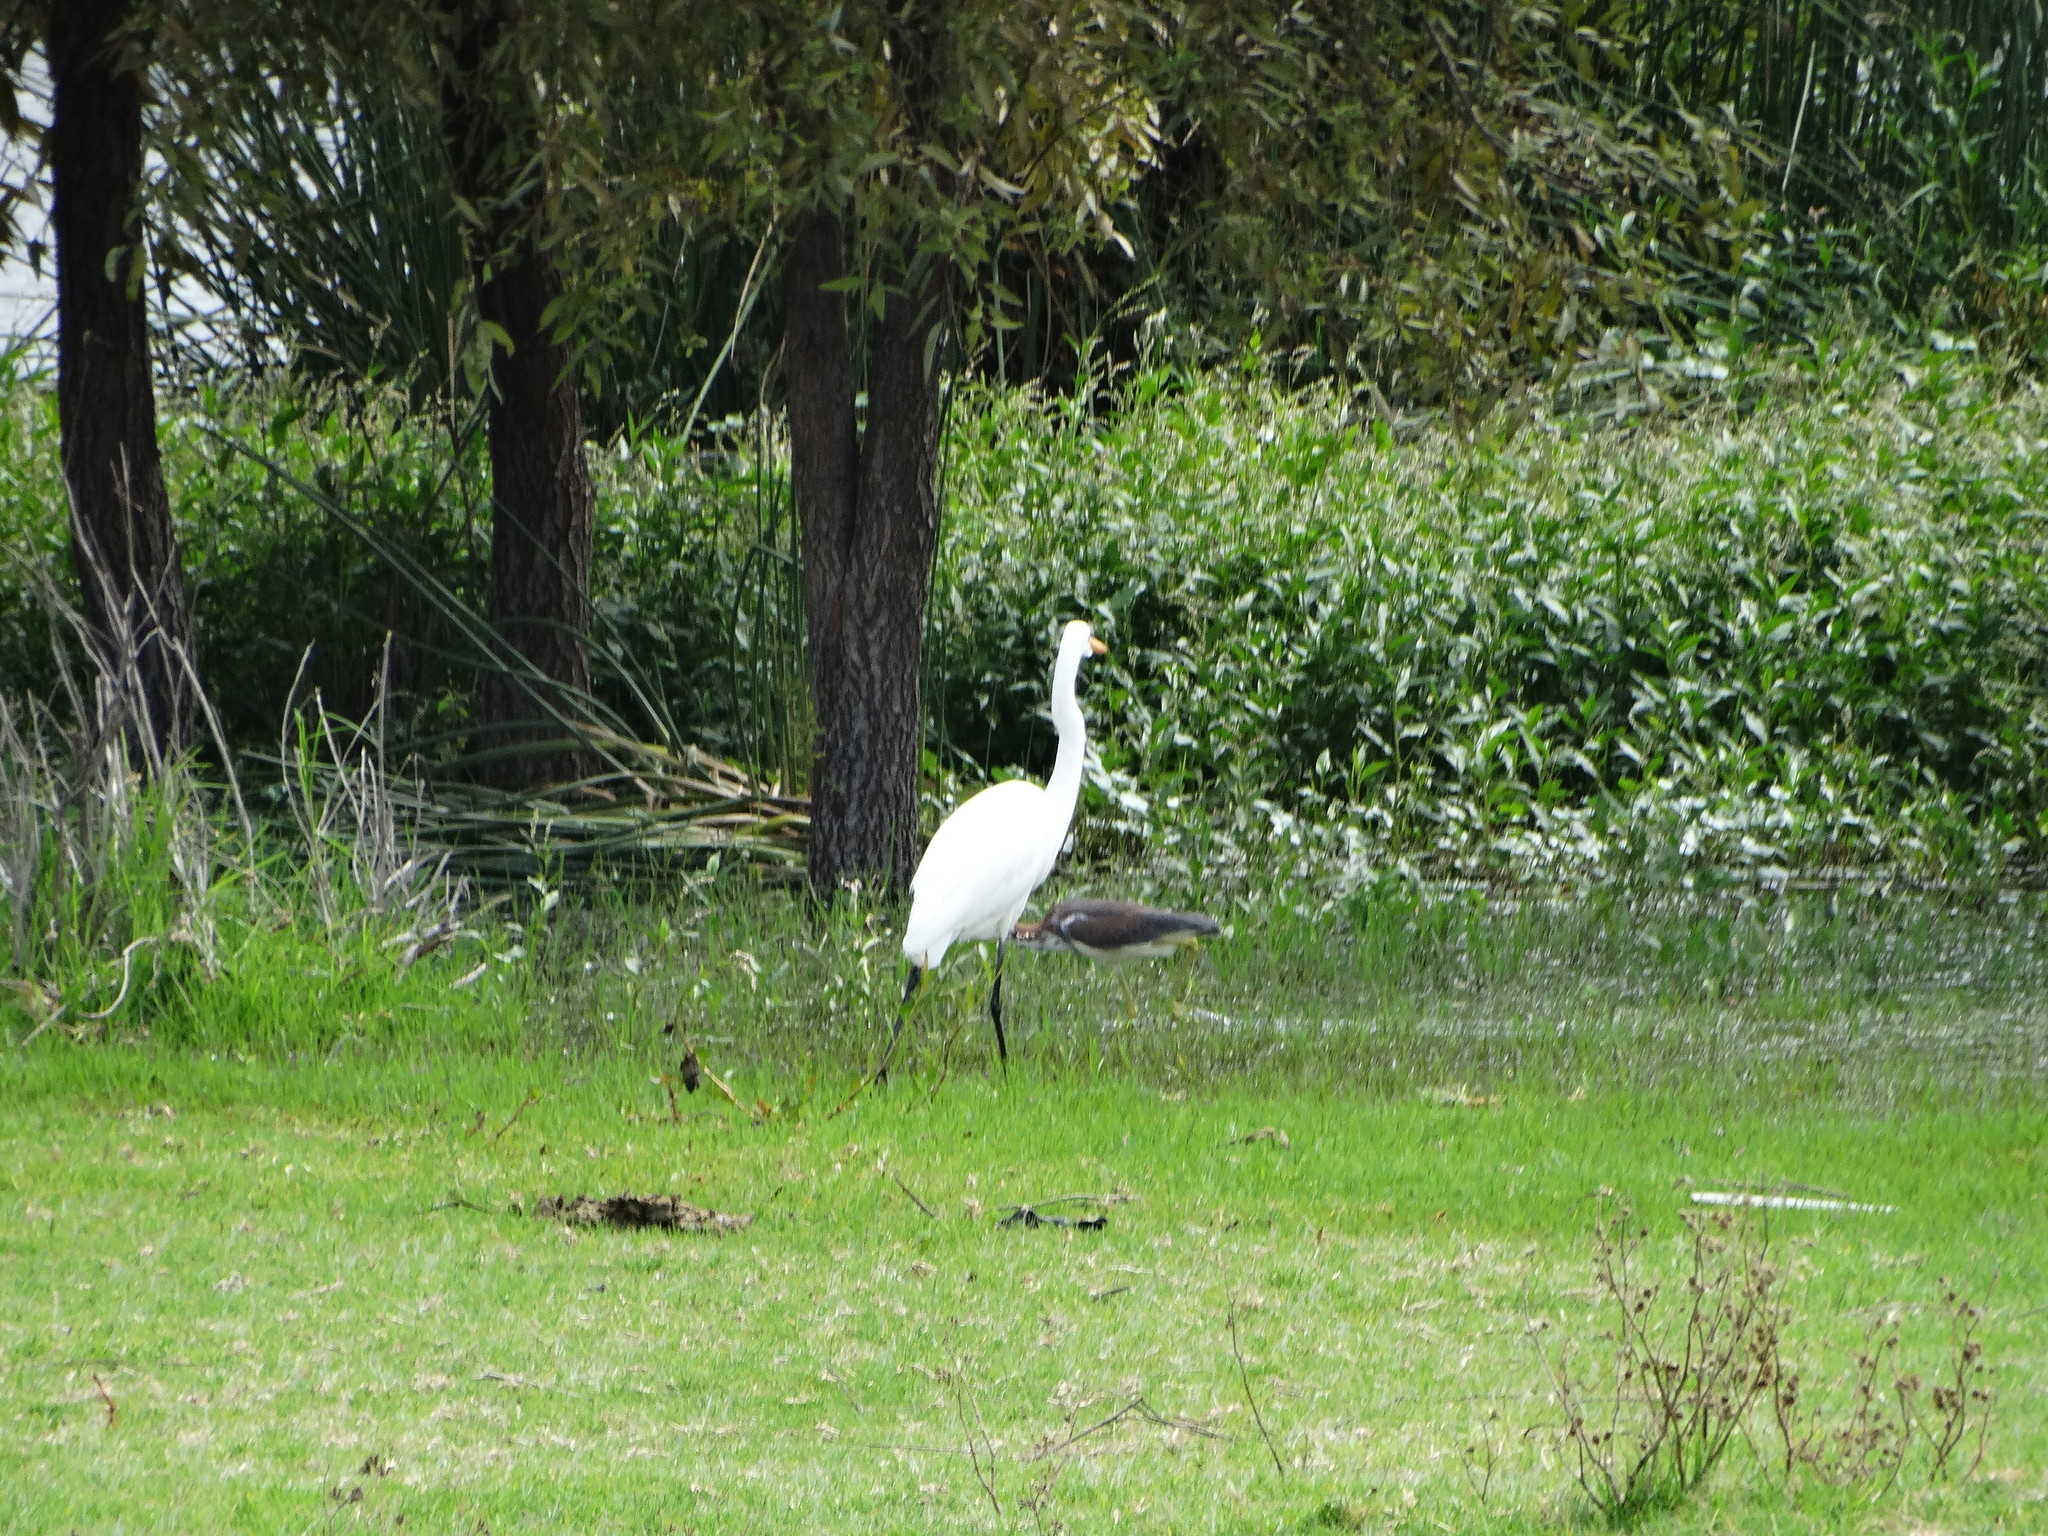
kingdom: Animalia
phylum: Chordata
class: Aves
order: Pelecaniformes
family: Ardeidae
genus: Ardea
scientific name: Ardea alba
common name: Great egret
